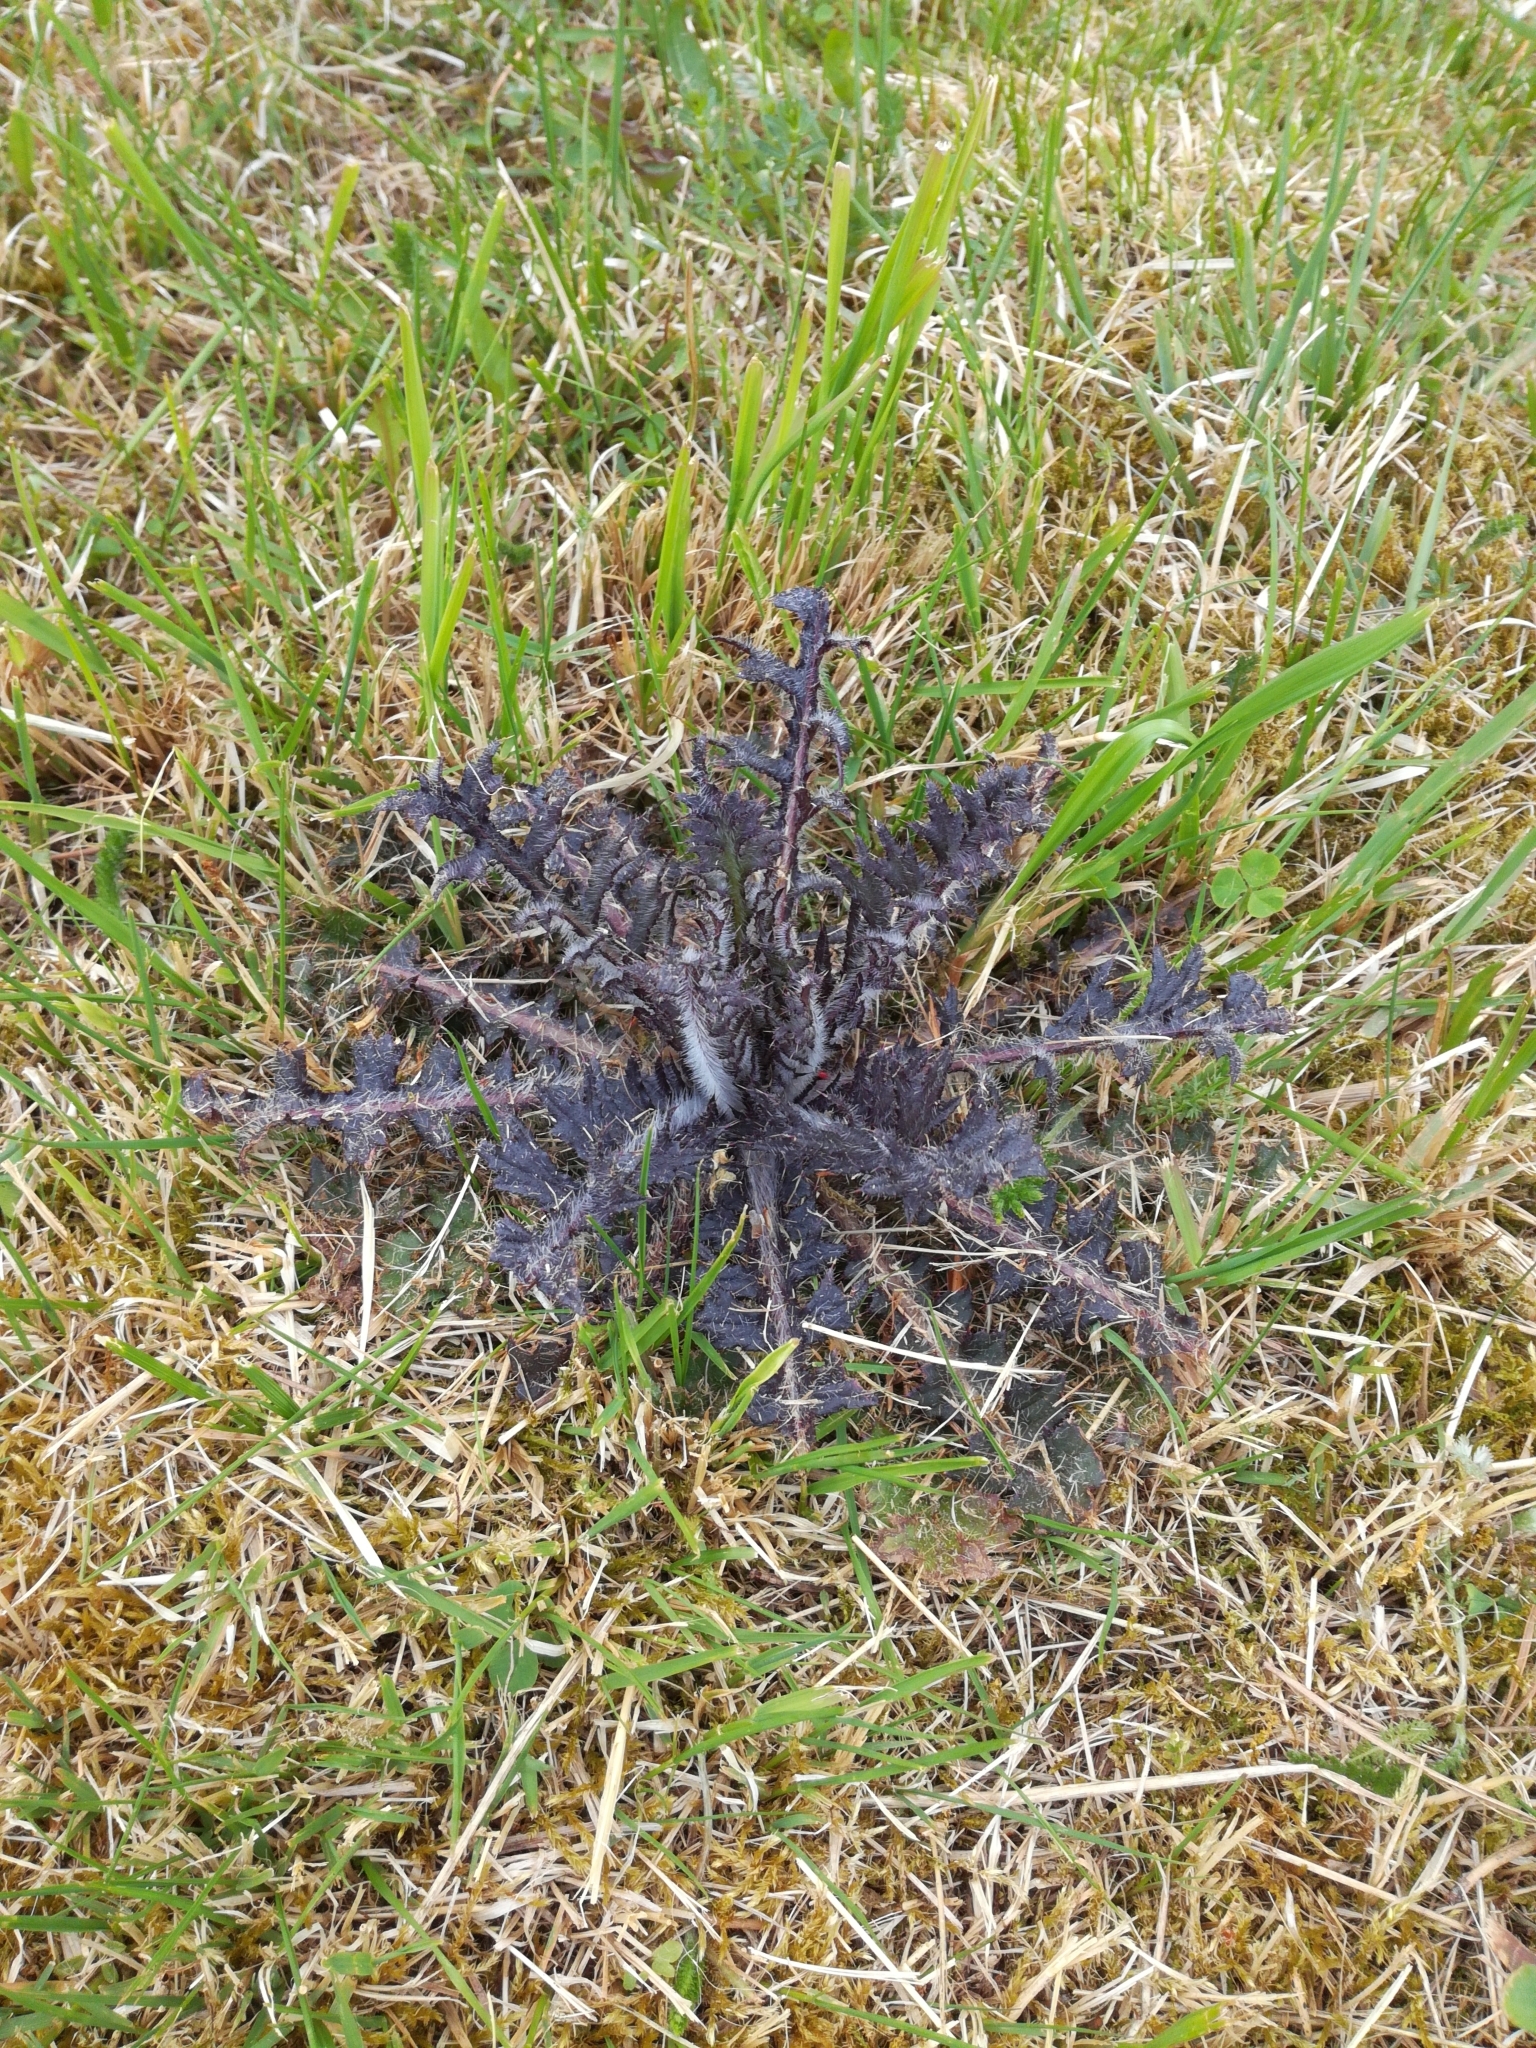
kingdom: Plantae
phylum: Tracheophyta
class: Magnoliopsida
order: Asterales
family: Asteraceae
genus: Cirsium
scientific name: Cirsium palustre
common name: Marsh thistle
